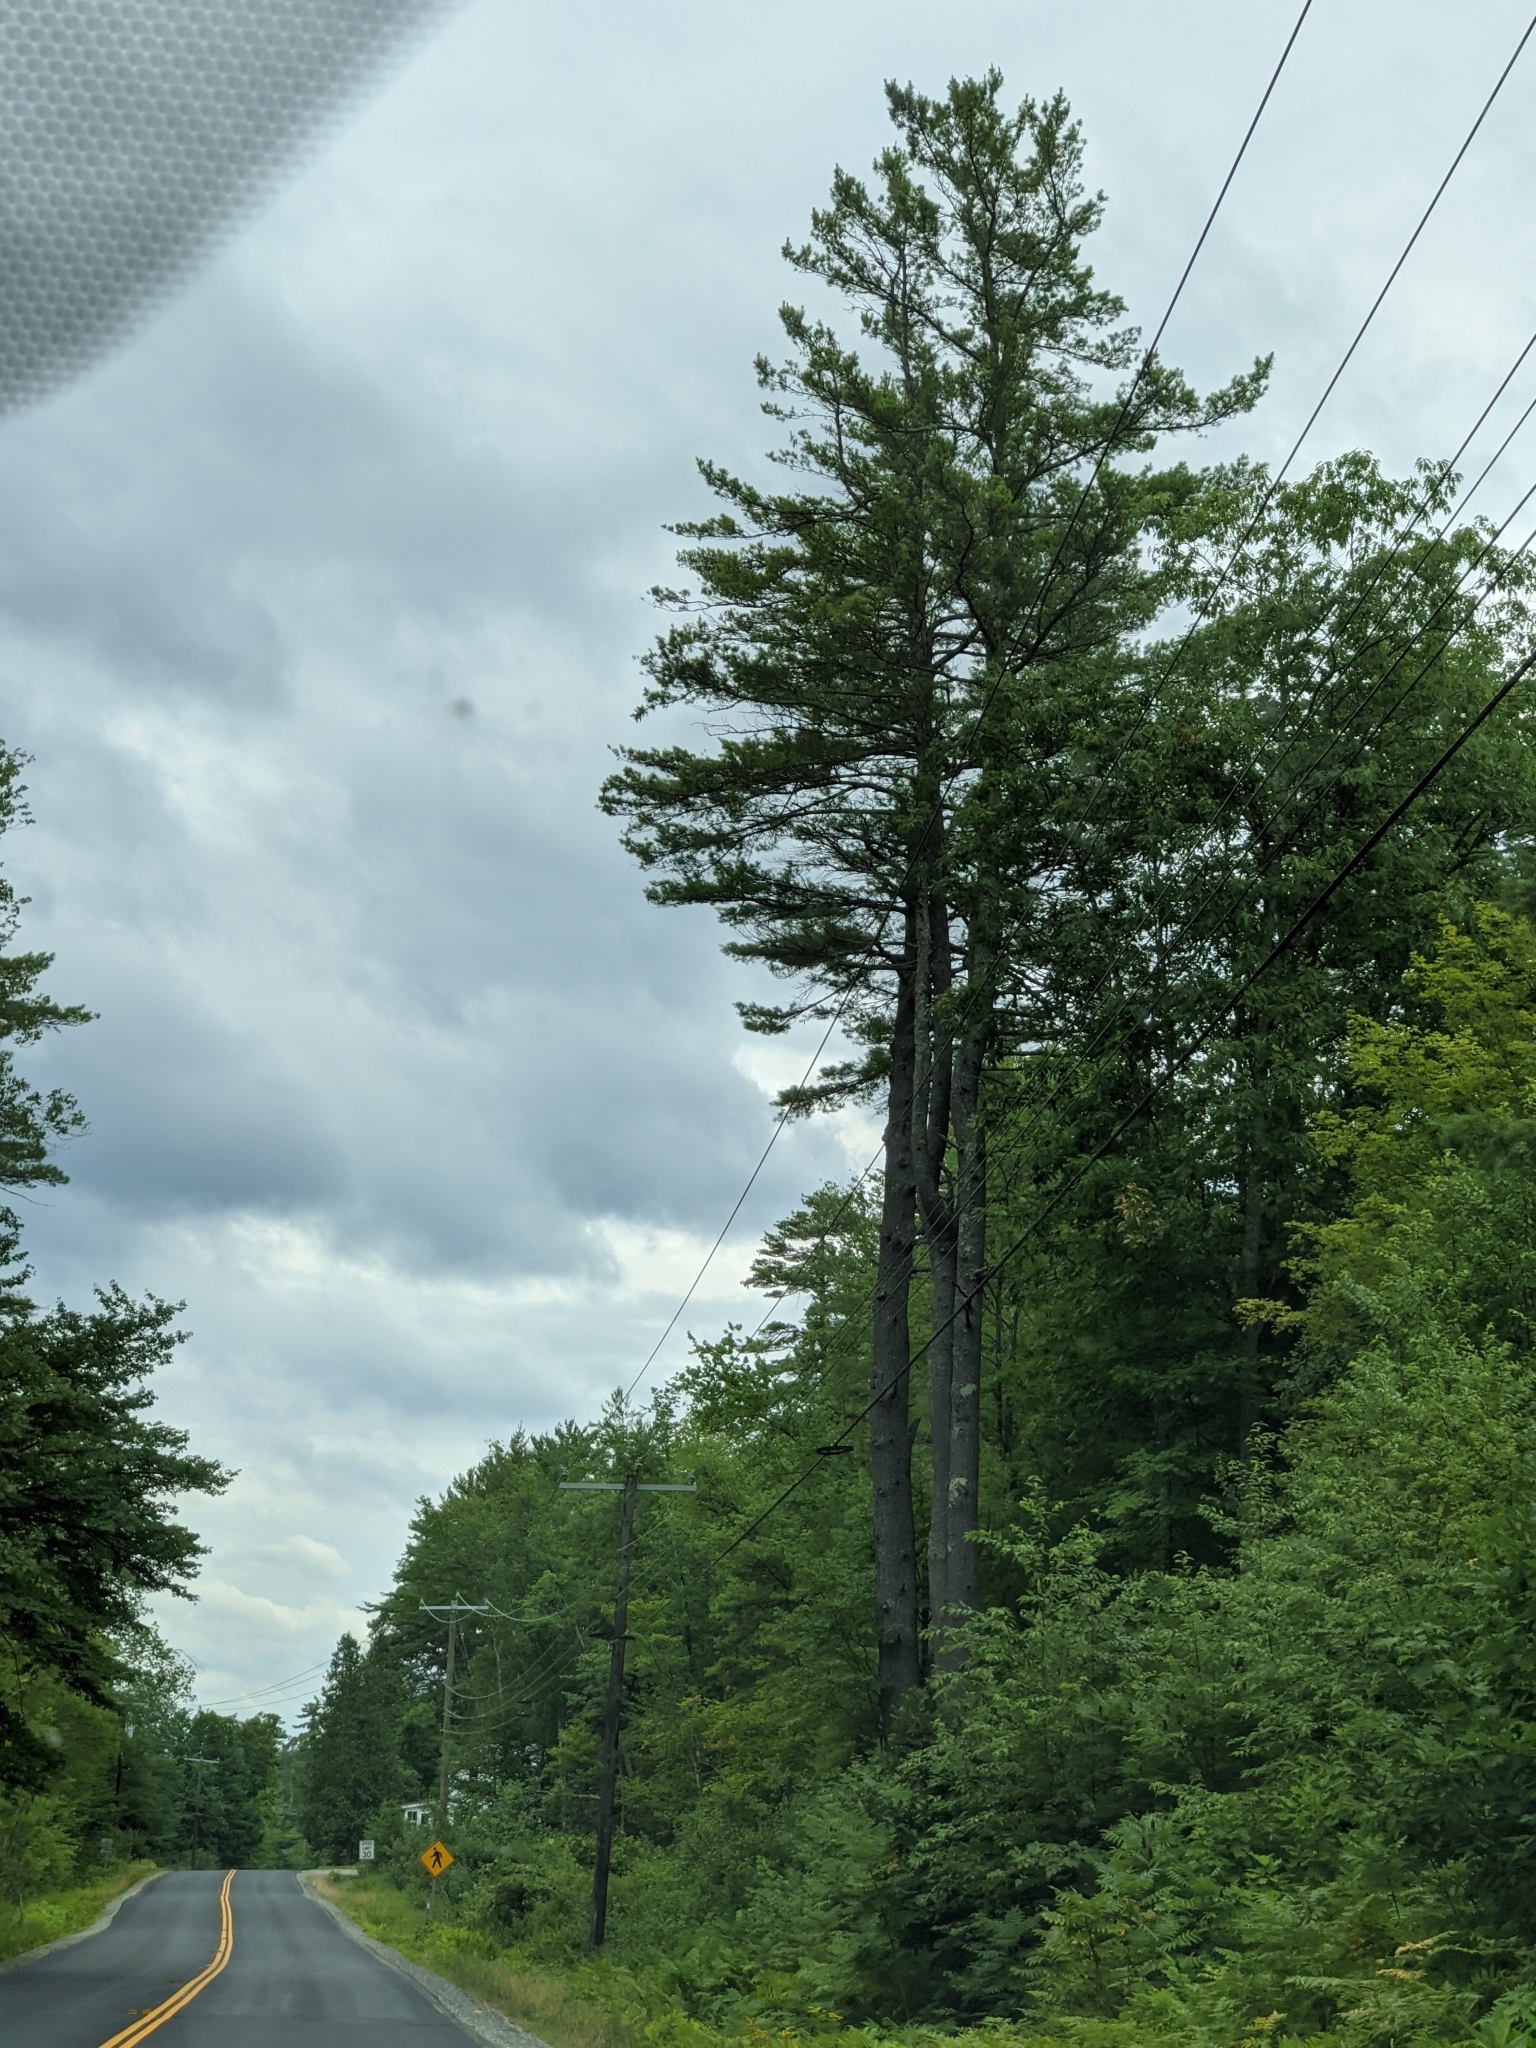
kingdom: Plantae
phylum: Tracheophyta
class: Pinopsida
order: Pinales
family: Pinaceae
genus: Pinus
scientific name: Pinus strobus
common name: Weymouth pine
